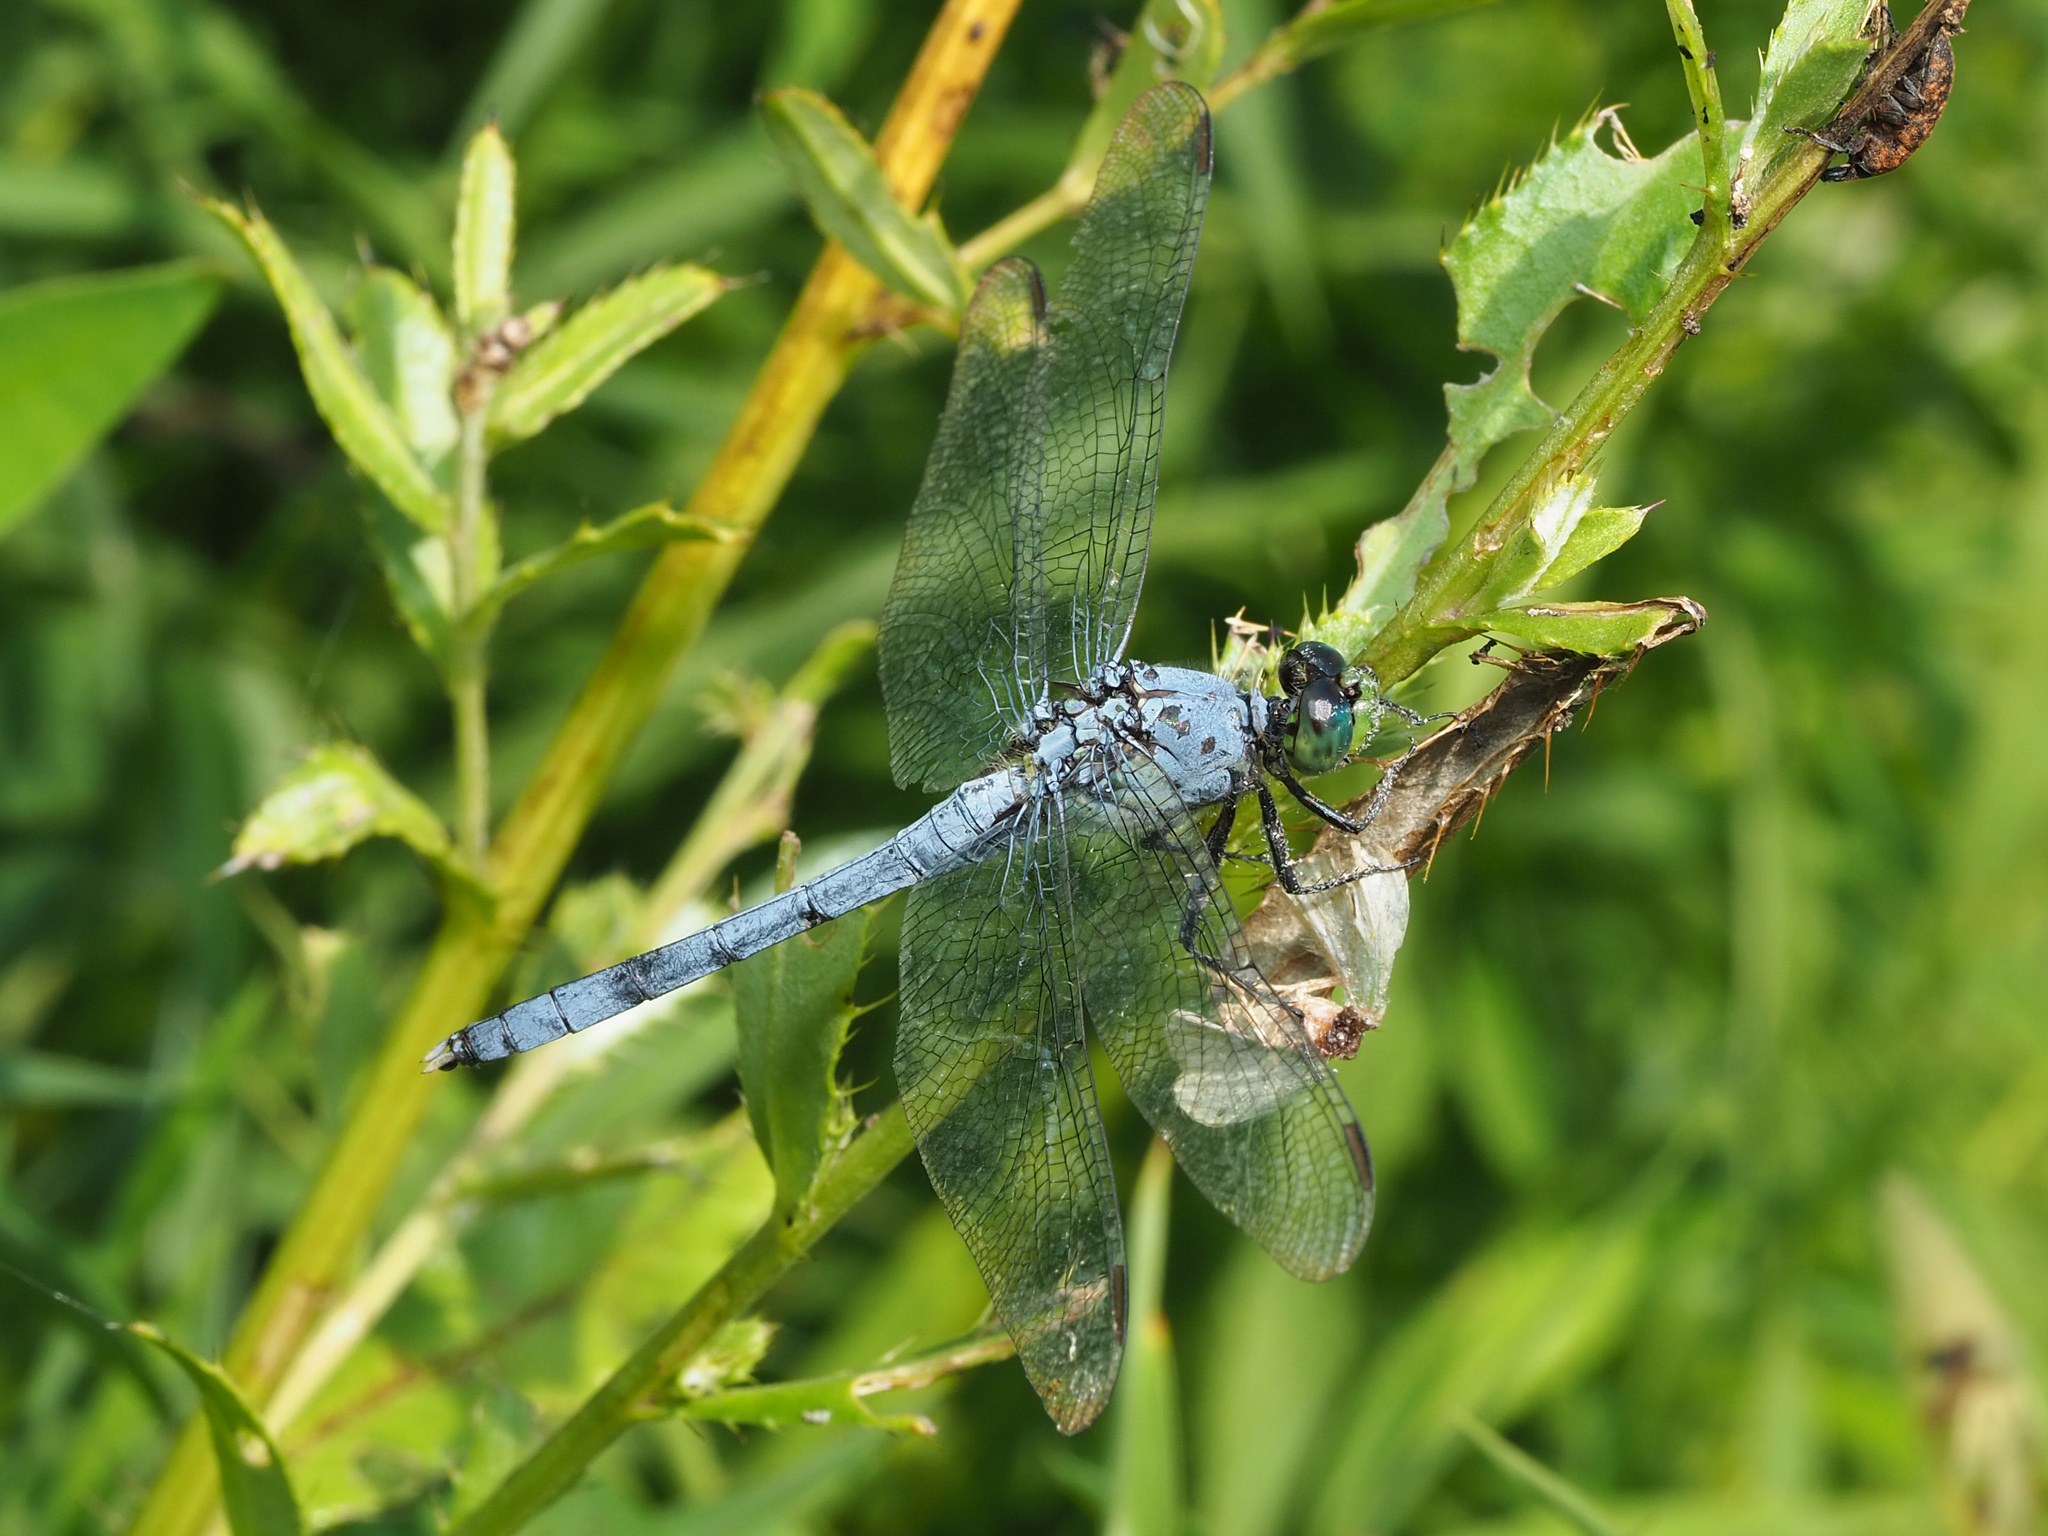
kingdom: Animalia
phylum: Arthropoda
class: Insecta
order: Odonata
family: Libellulidae
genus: Erythemis
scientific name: Erythemis simplicicollis
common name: Eastern pondhawk
